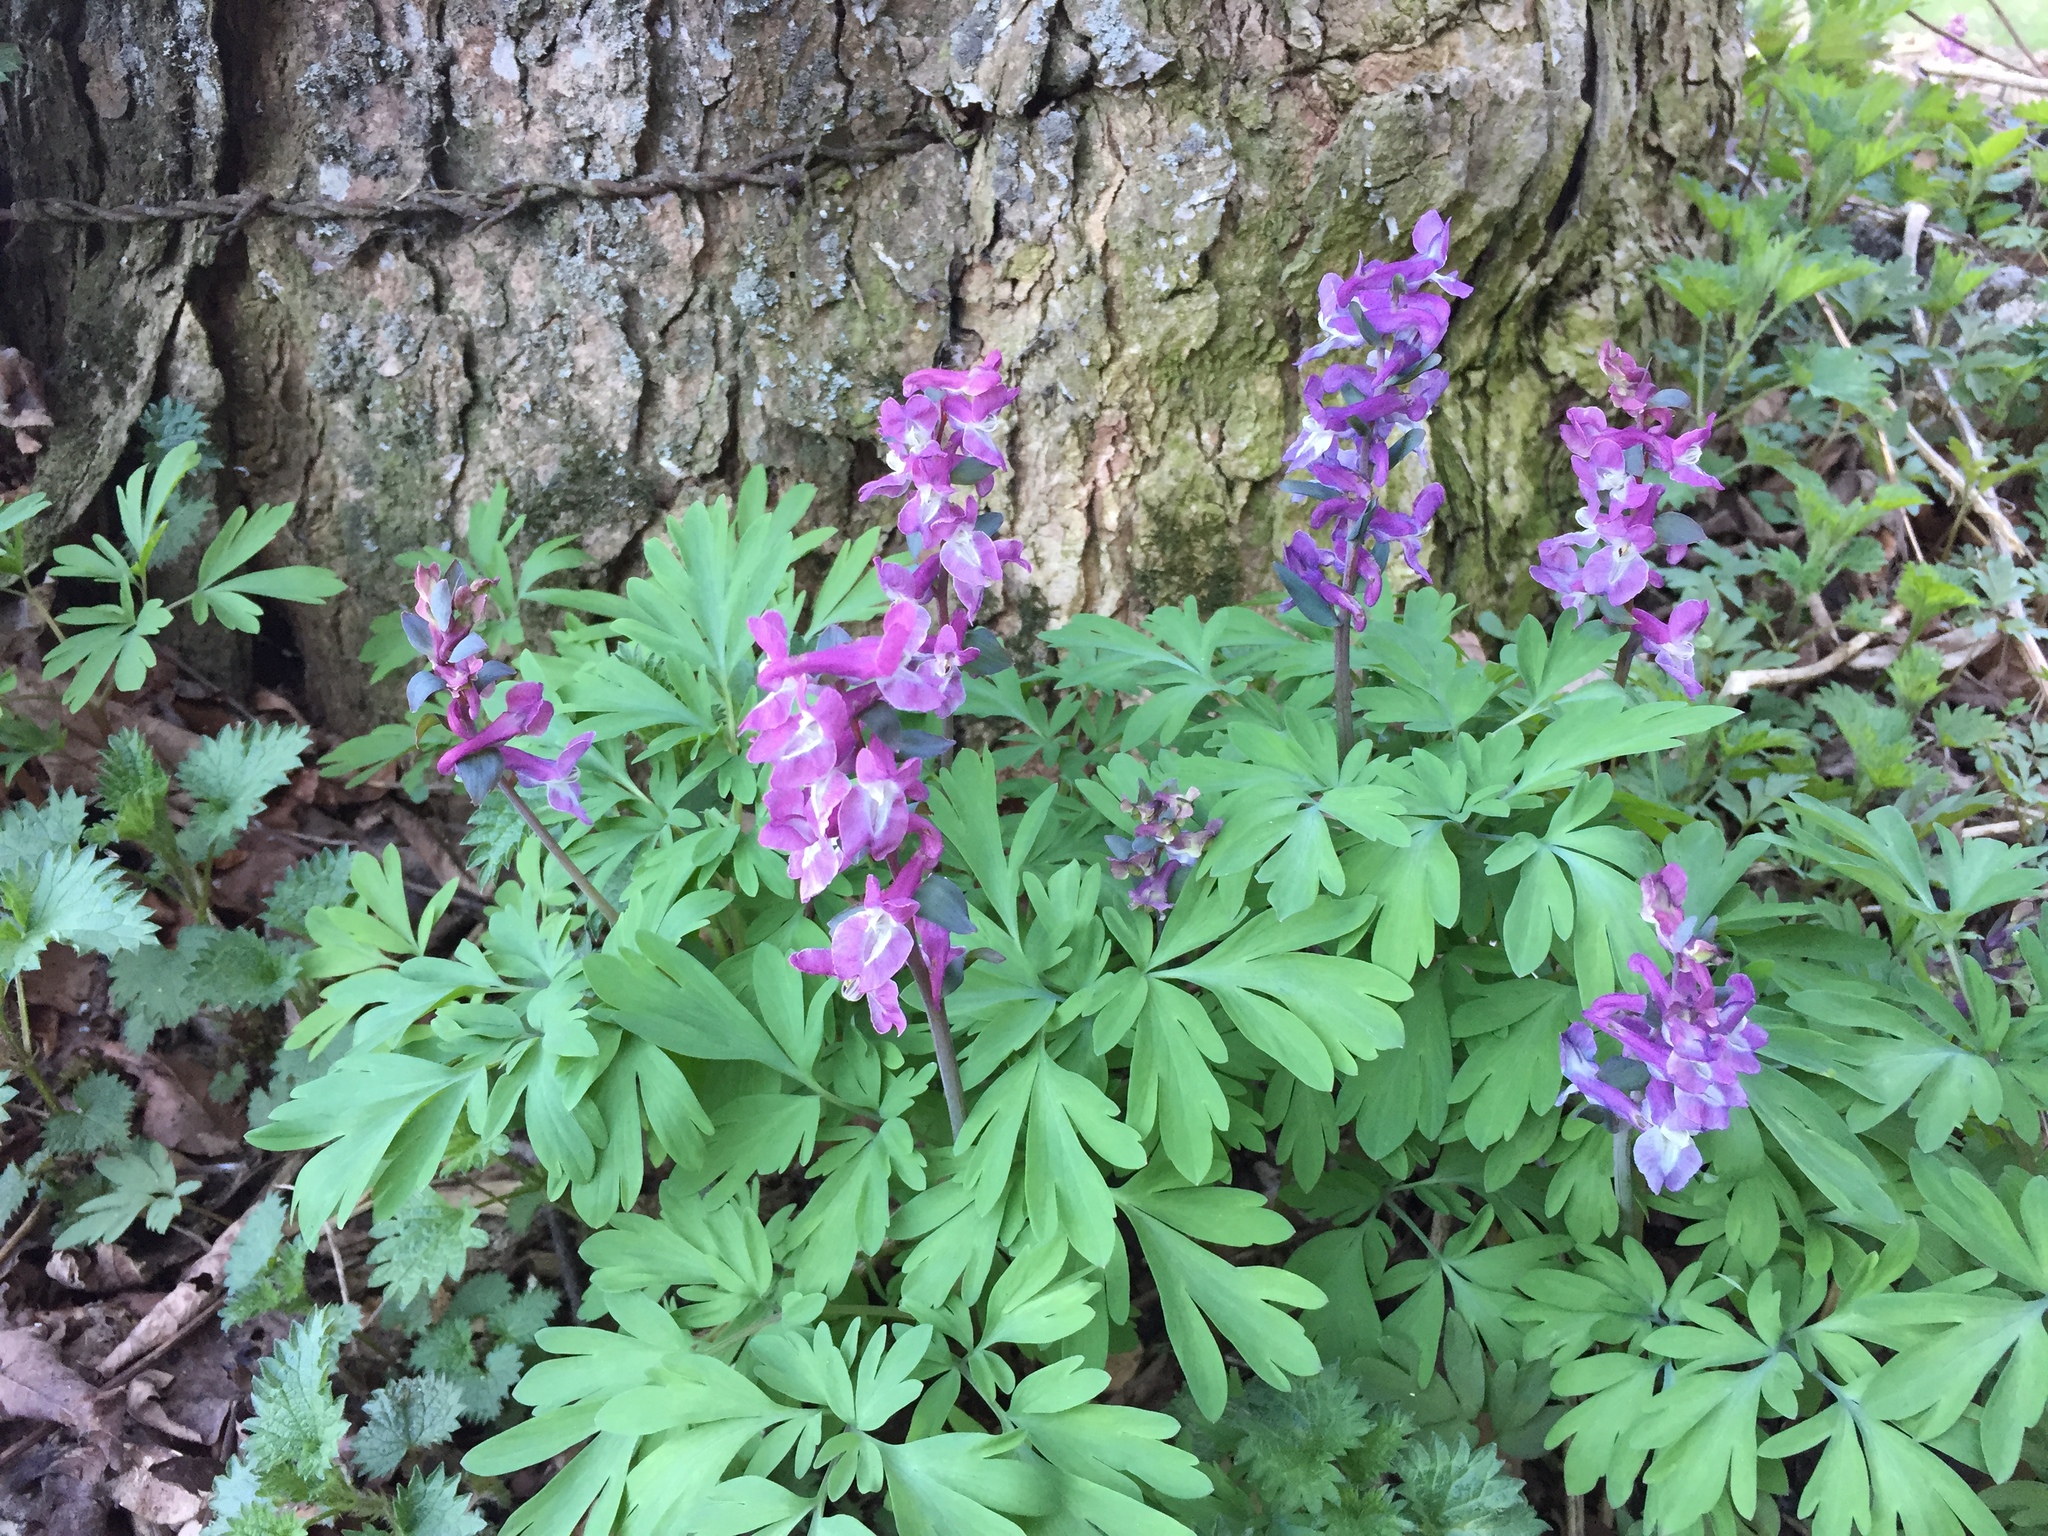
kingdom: Plantae
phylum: Tracheophyta
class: Magnoliopsida
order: Ranunculales
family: Papaveraceae
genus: Corydalis
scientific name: Corydalis cava
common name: Hollowroot
